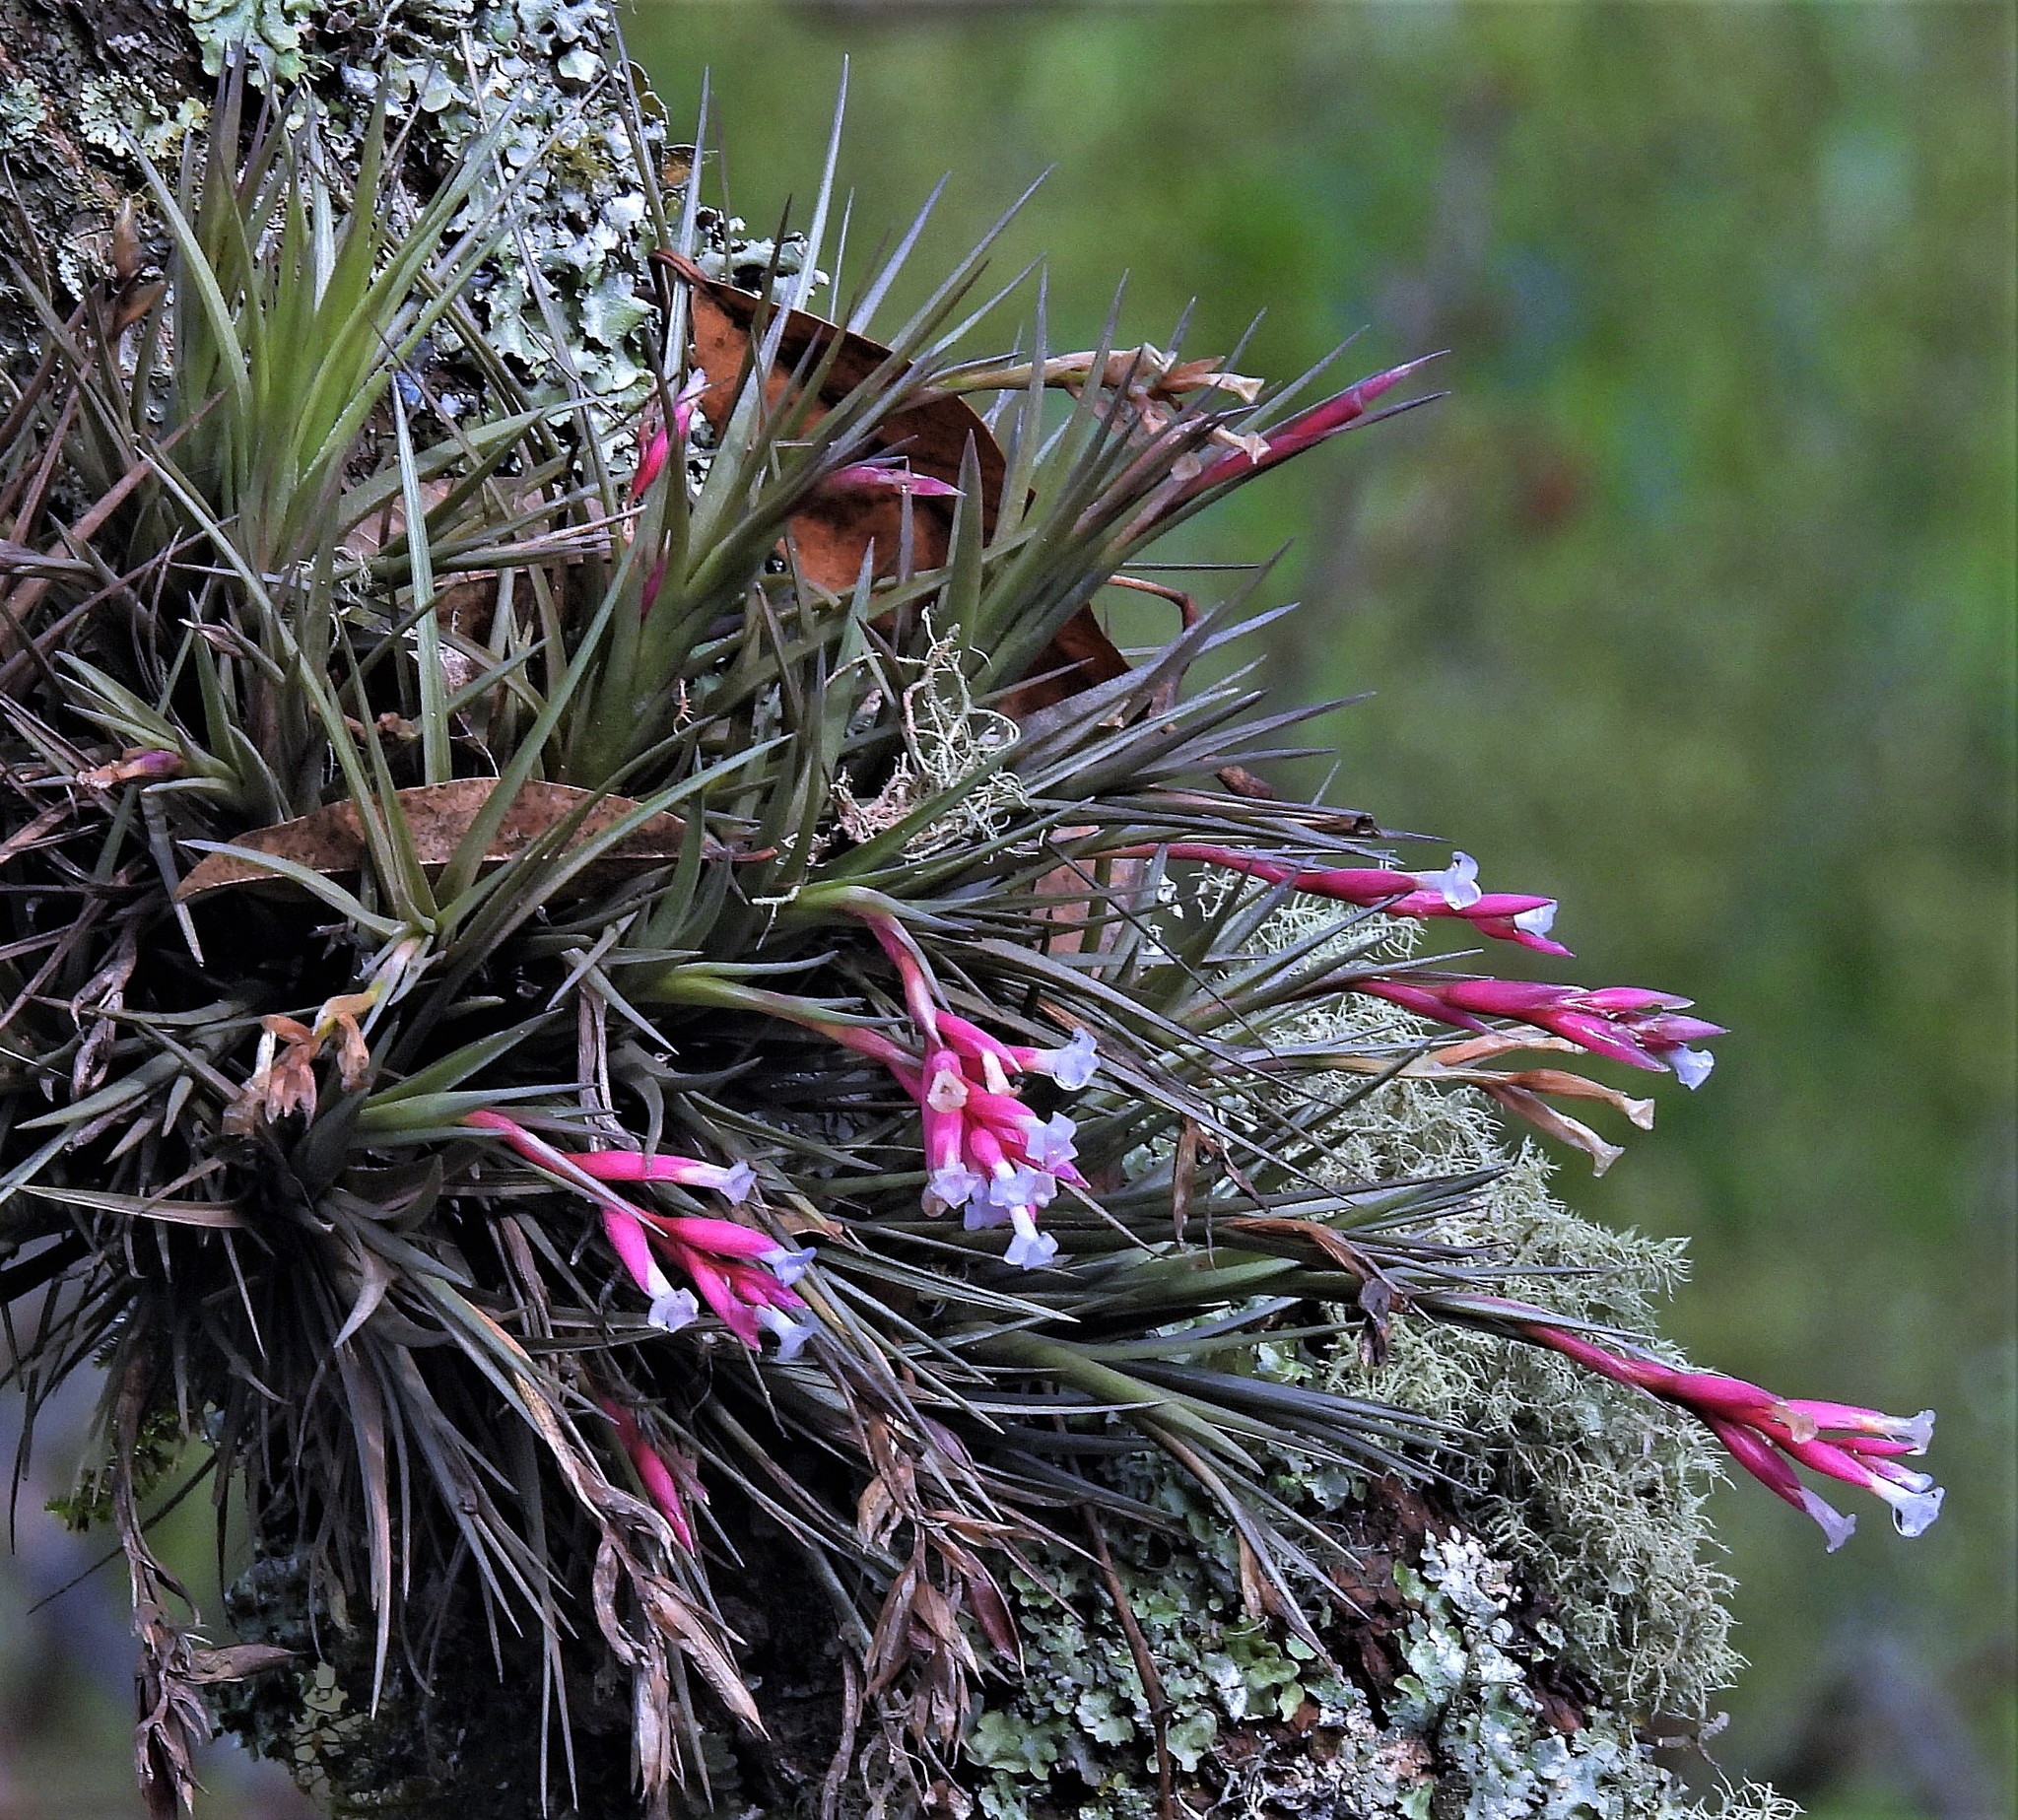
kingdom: Plantae
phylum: Tracheophyta
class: Liliopsida
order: Poales
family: Bromeliaceae
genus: Tillandsia
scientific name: Tillandsia tenuifolia
